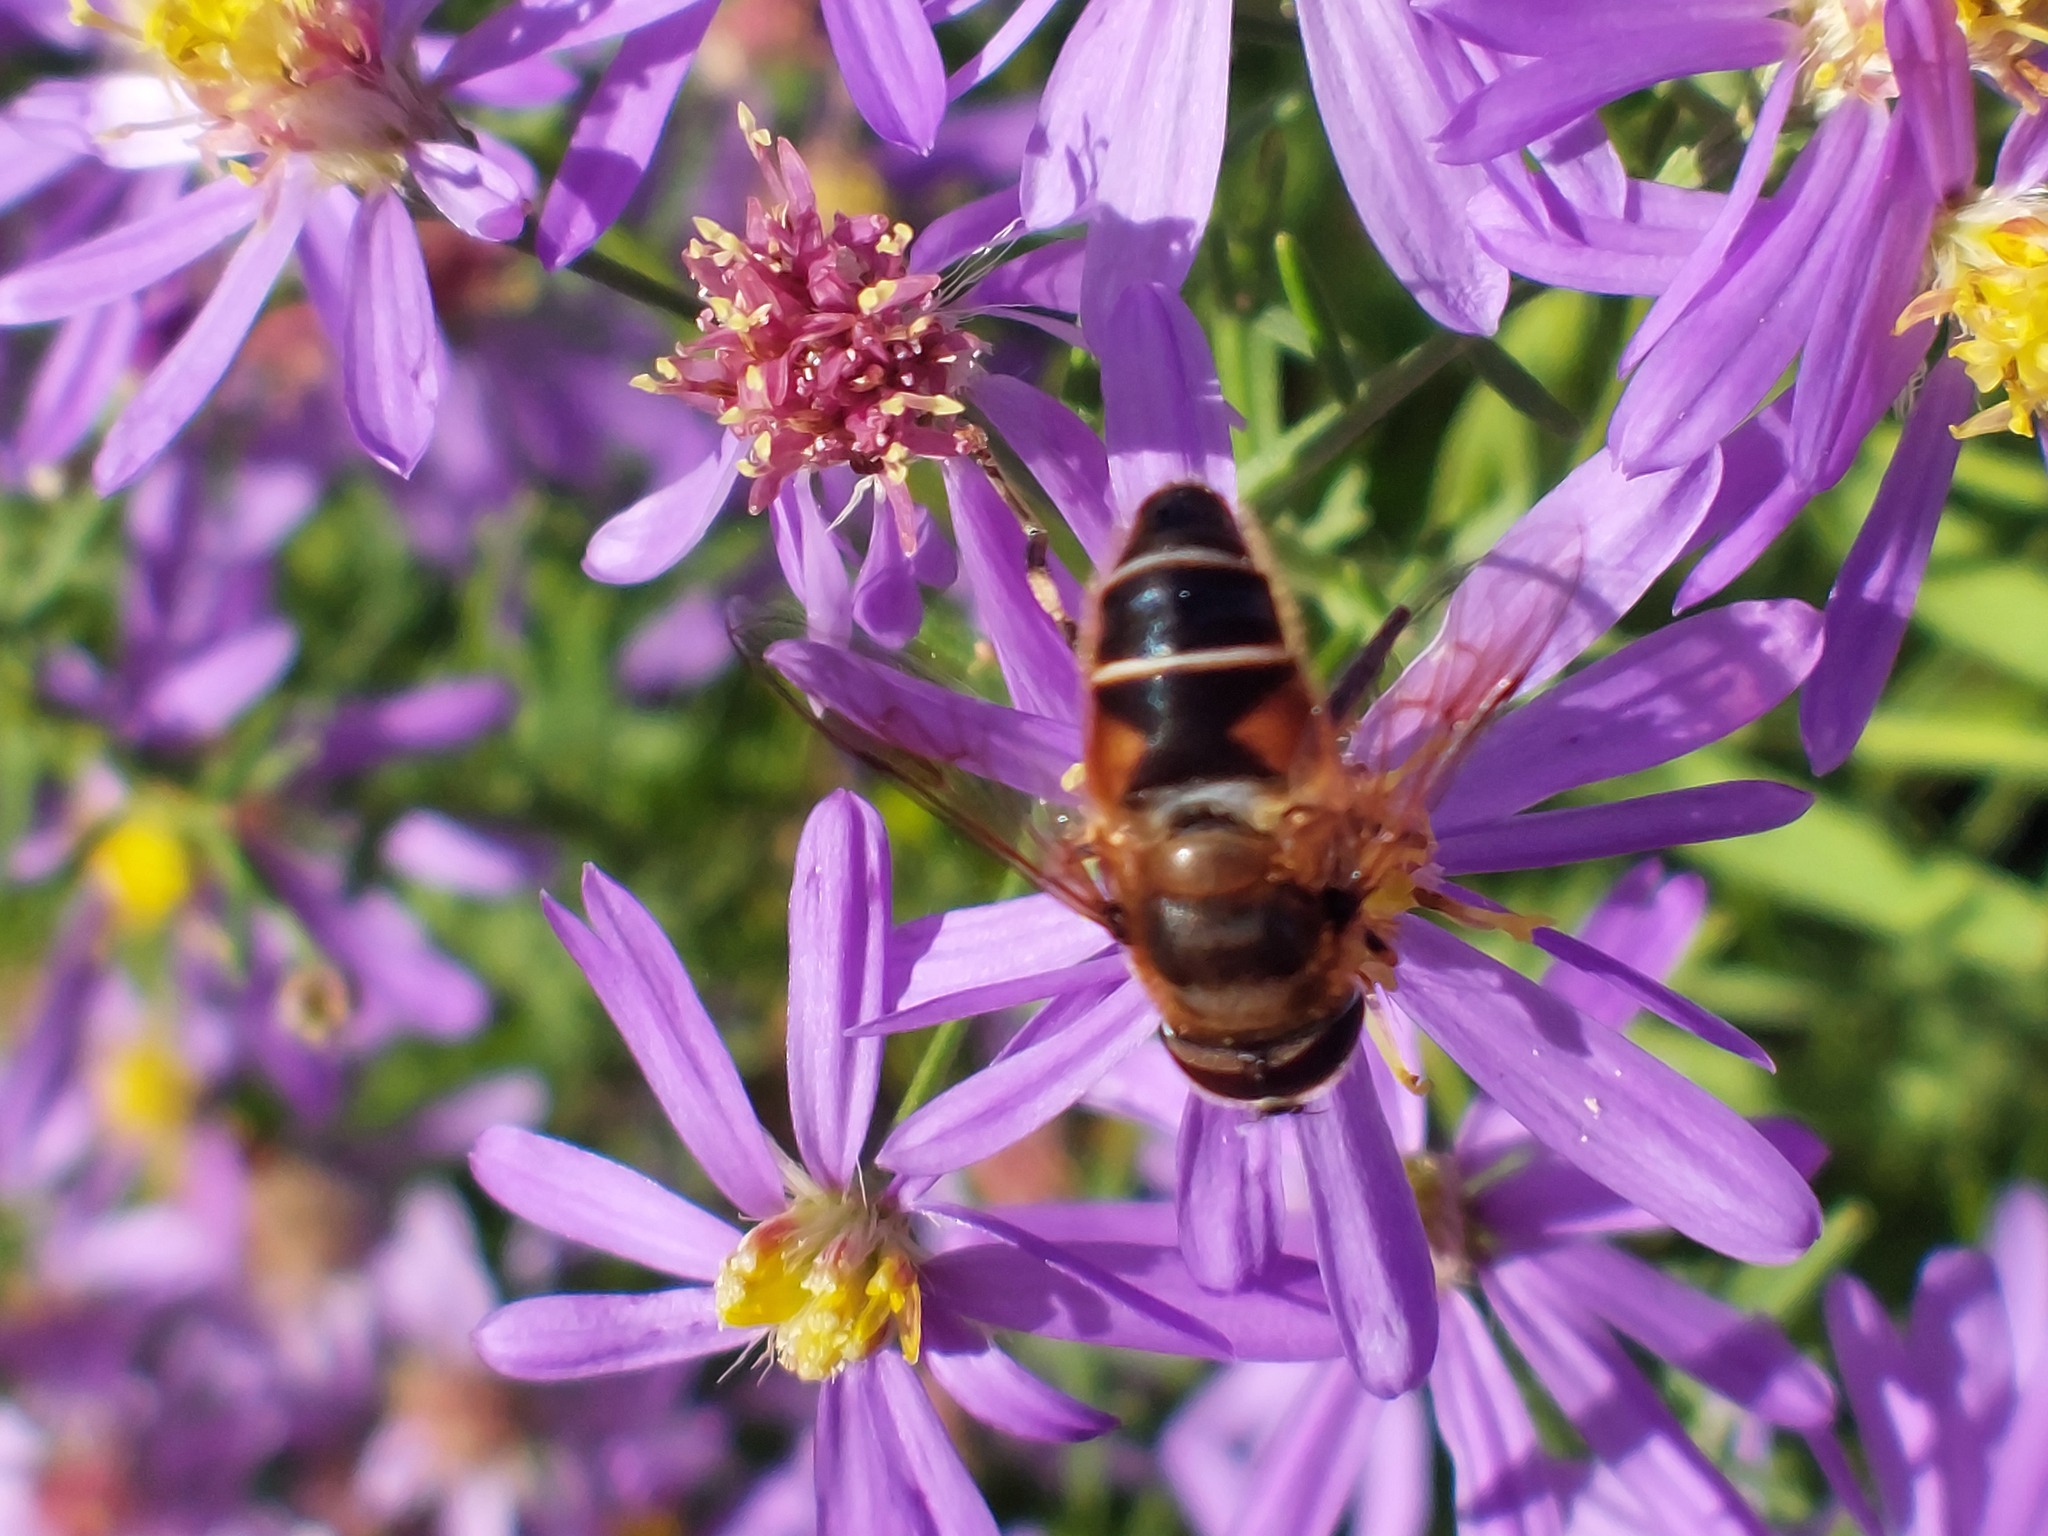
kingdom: Animalia
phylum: Arthropoda
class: Insecta
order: Diptera
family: Syrphidae
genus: Eristalis
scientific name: Eristalis pertinax
